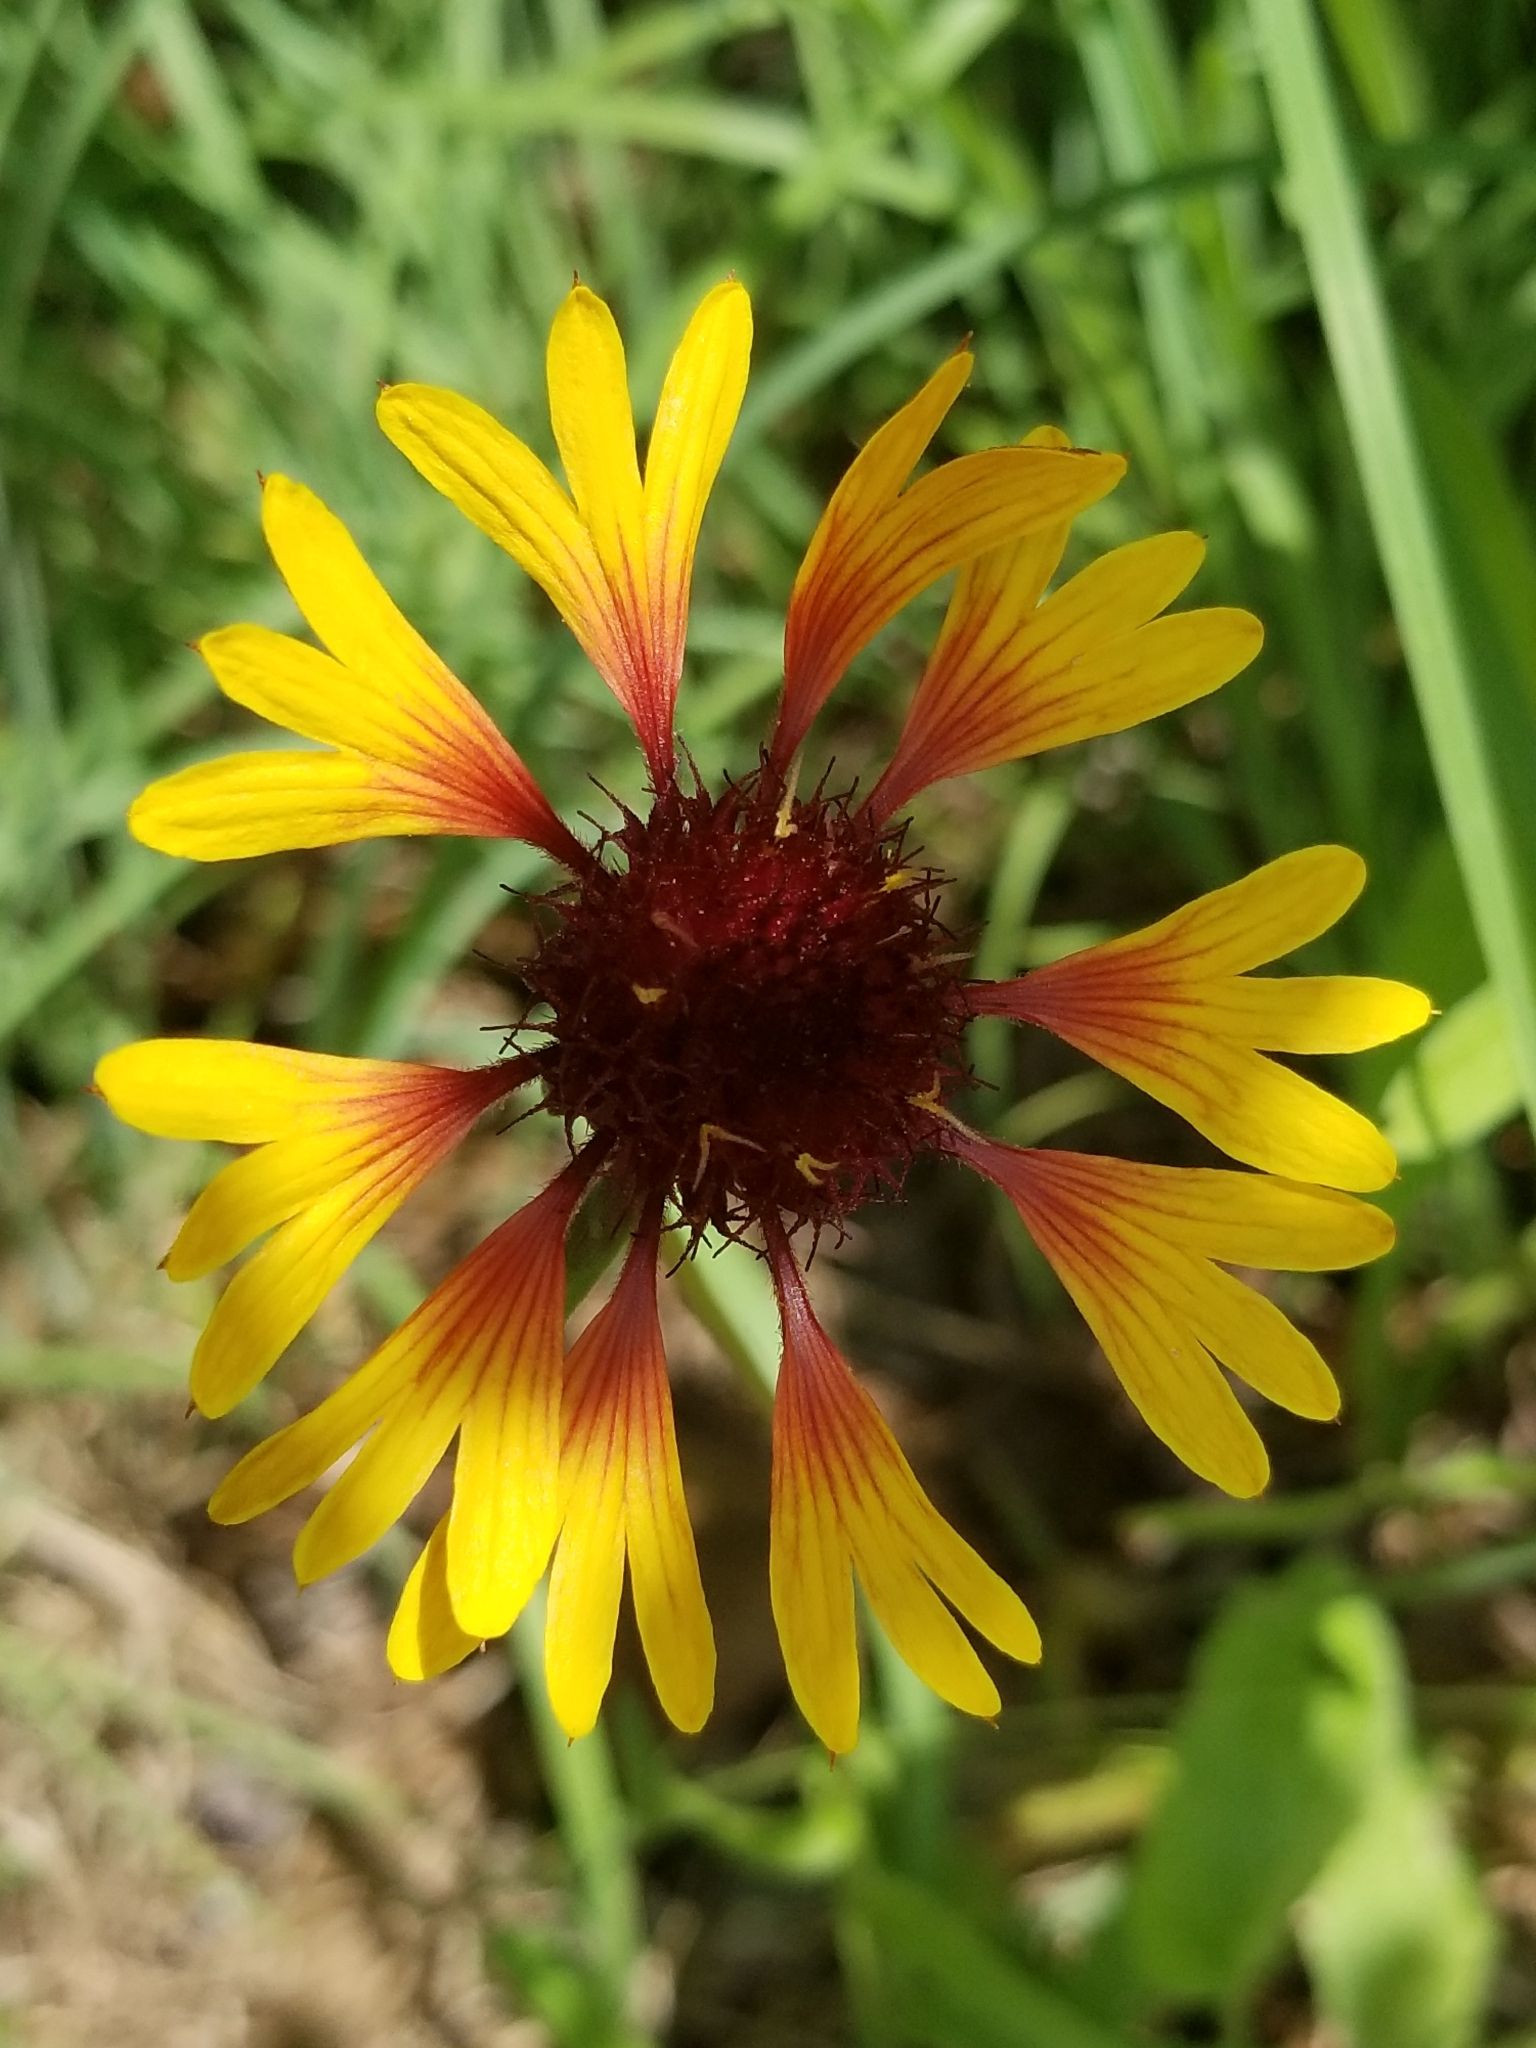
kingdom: Plantae
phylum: Tracheophyta
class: Magnoliopsida
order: Asterales
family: Asteraceae
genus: Gaillardia
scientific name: Gaillardia aestivalis
